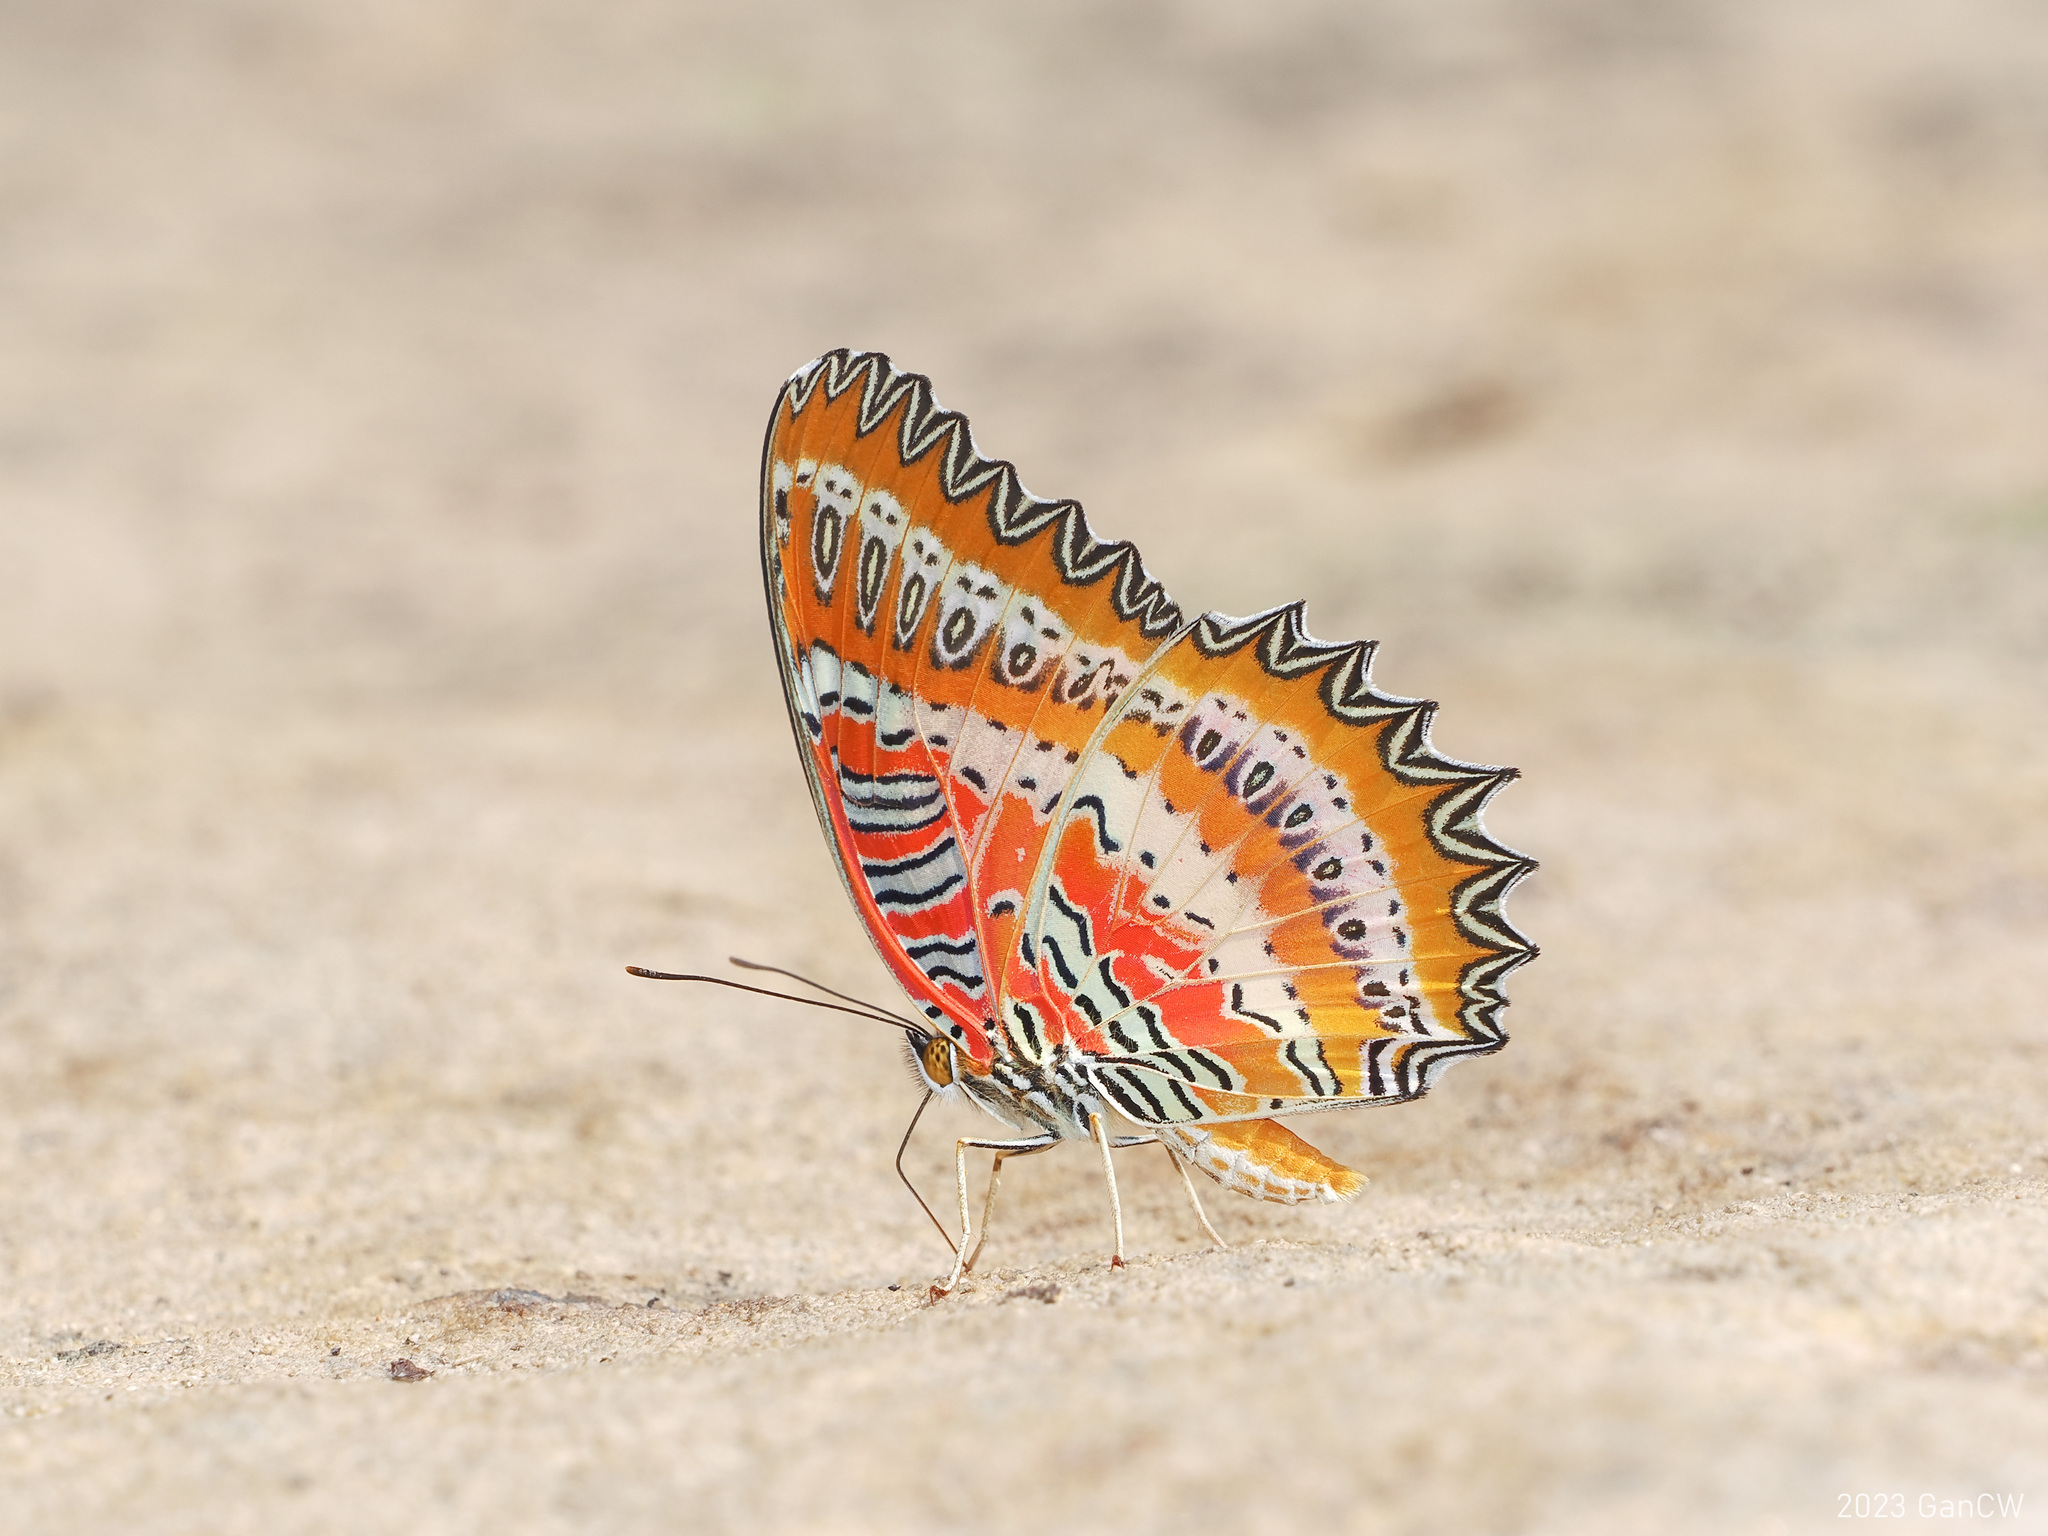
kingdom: Animalia
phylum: Arthropoda
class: Insecta
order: Lepidoptera
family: Nymphalidae
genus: Cethosia
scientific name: Cethosia biblis
